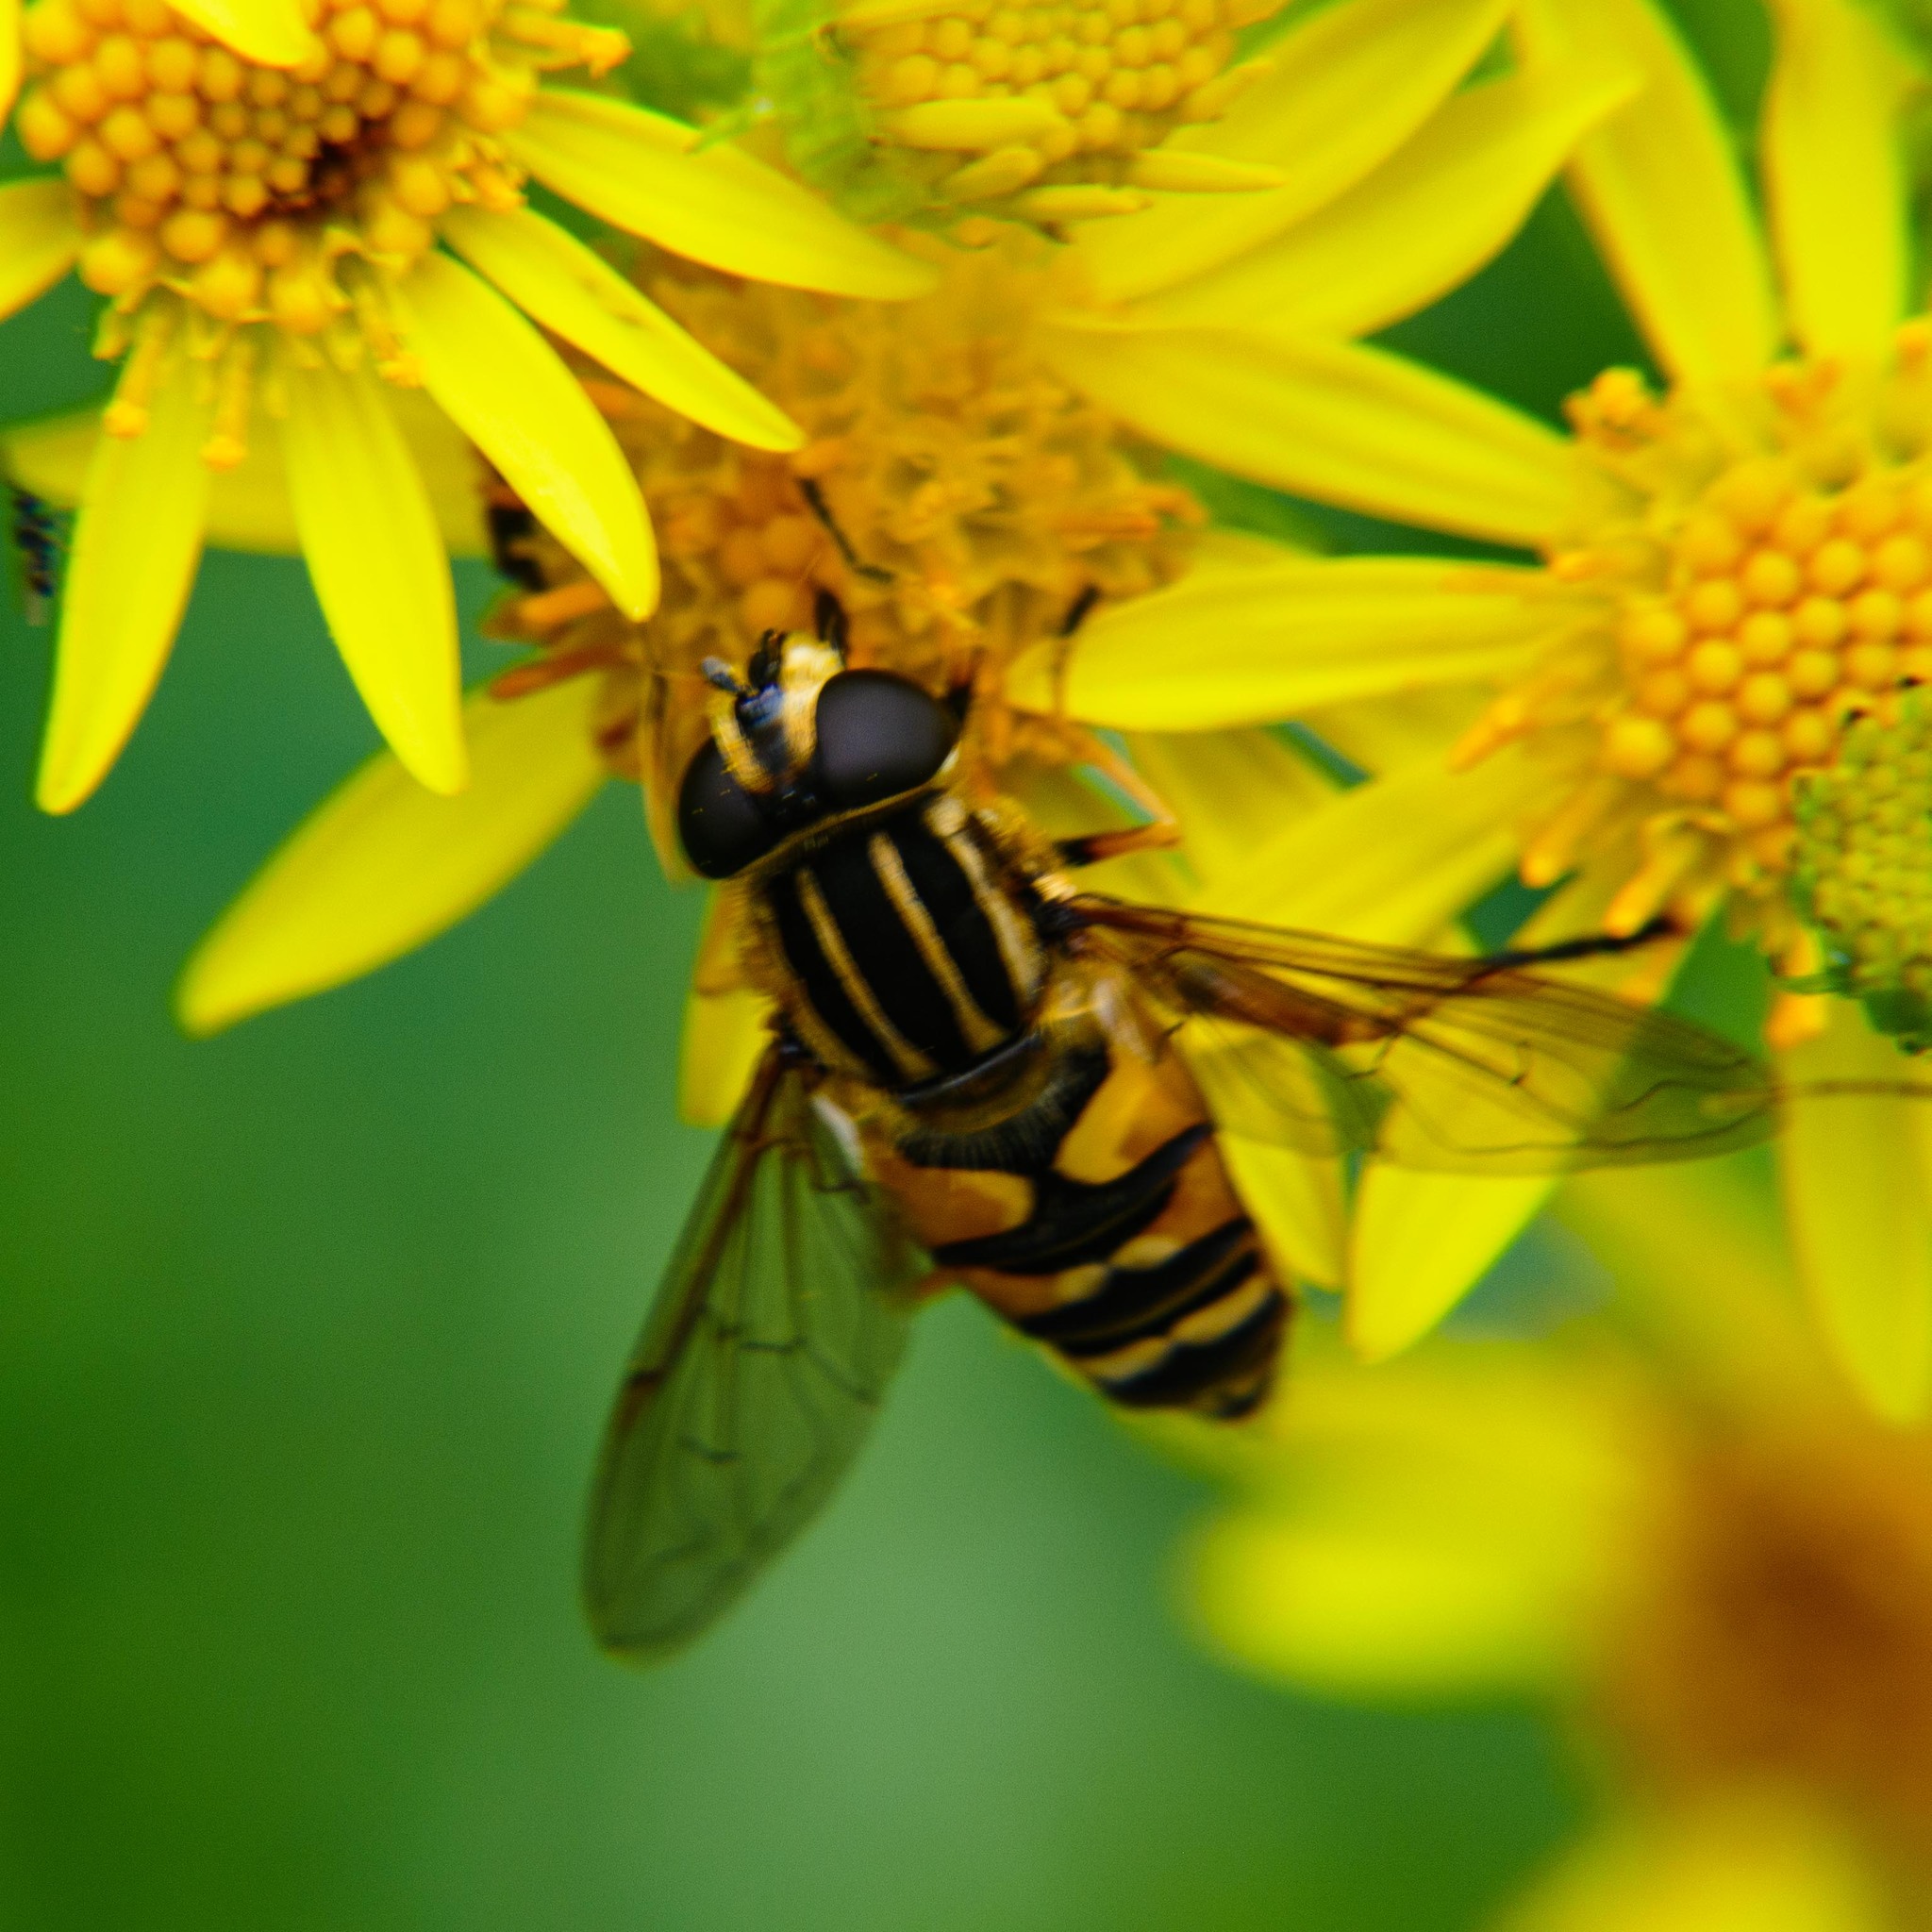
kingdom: Animalia
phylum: Arthropoda
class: Insecta
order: Diptera
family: Syrphidae
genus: Helophilus
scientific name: Helophilus pendulus
